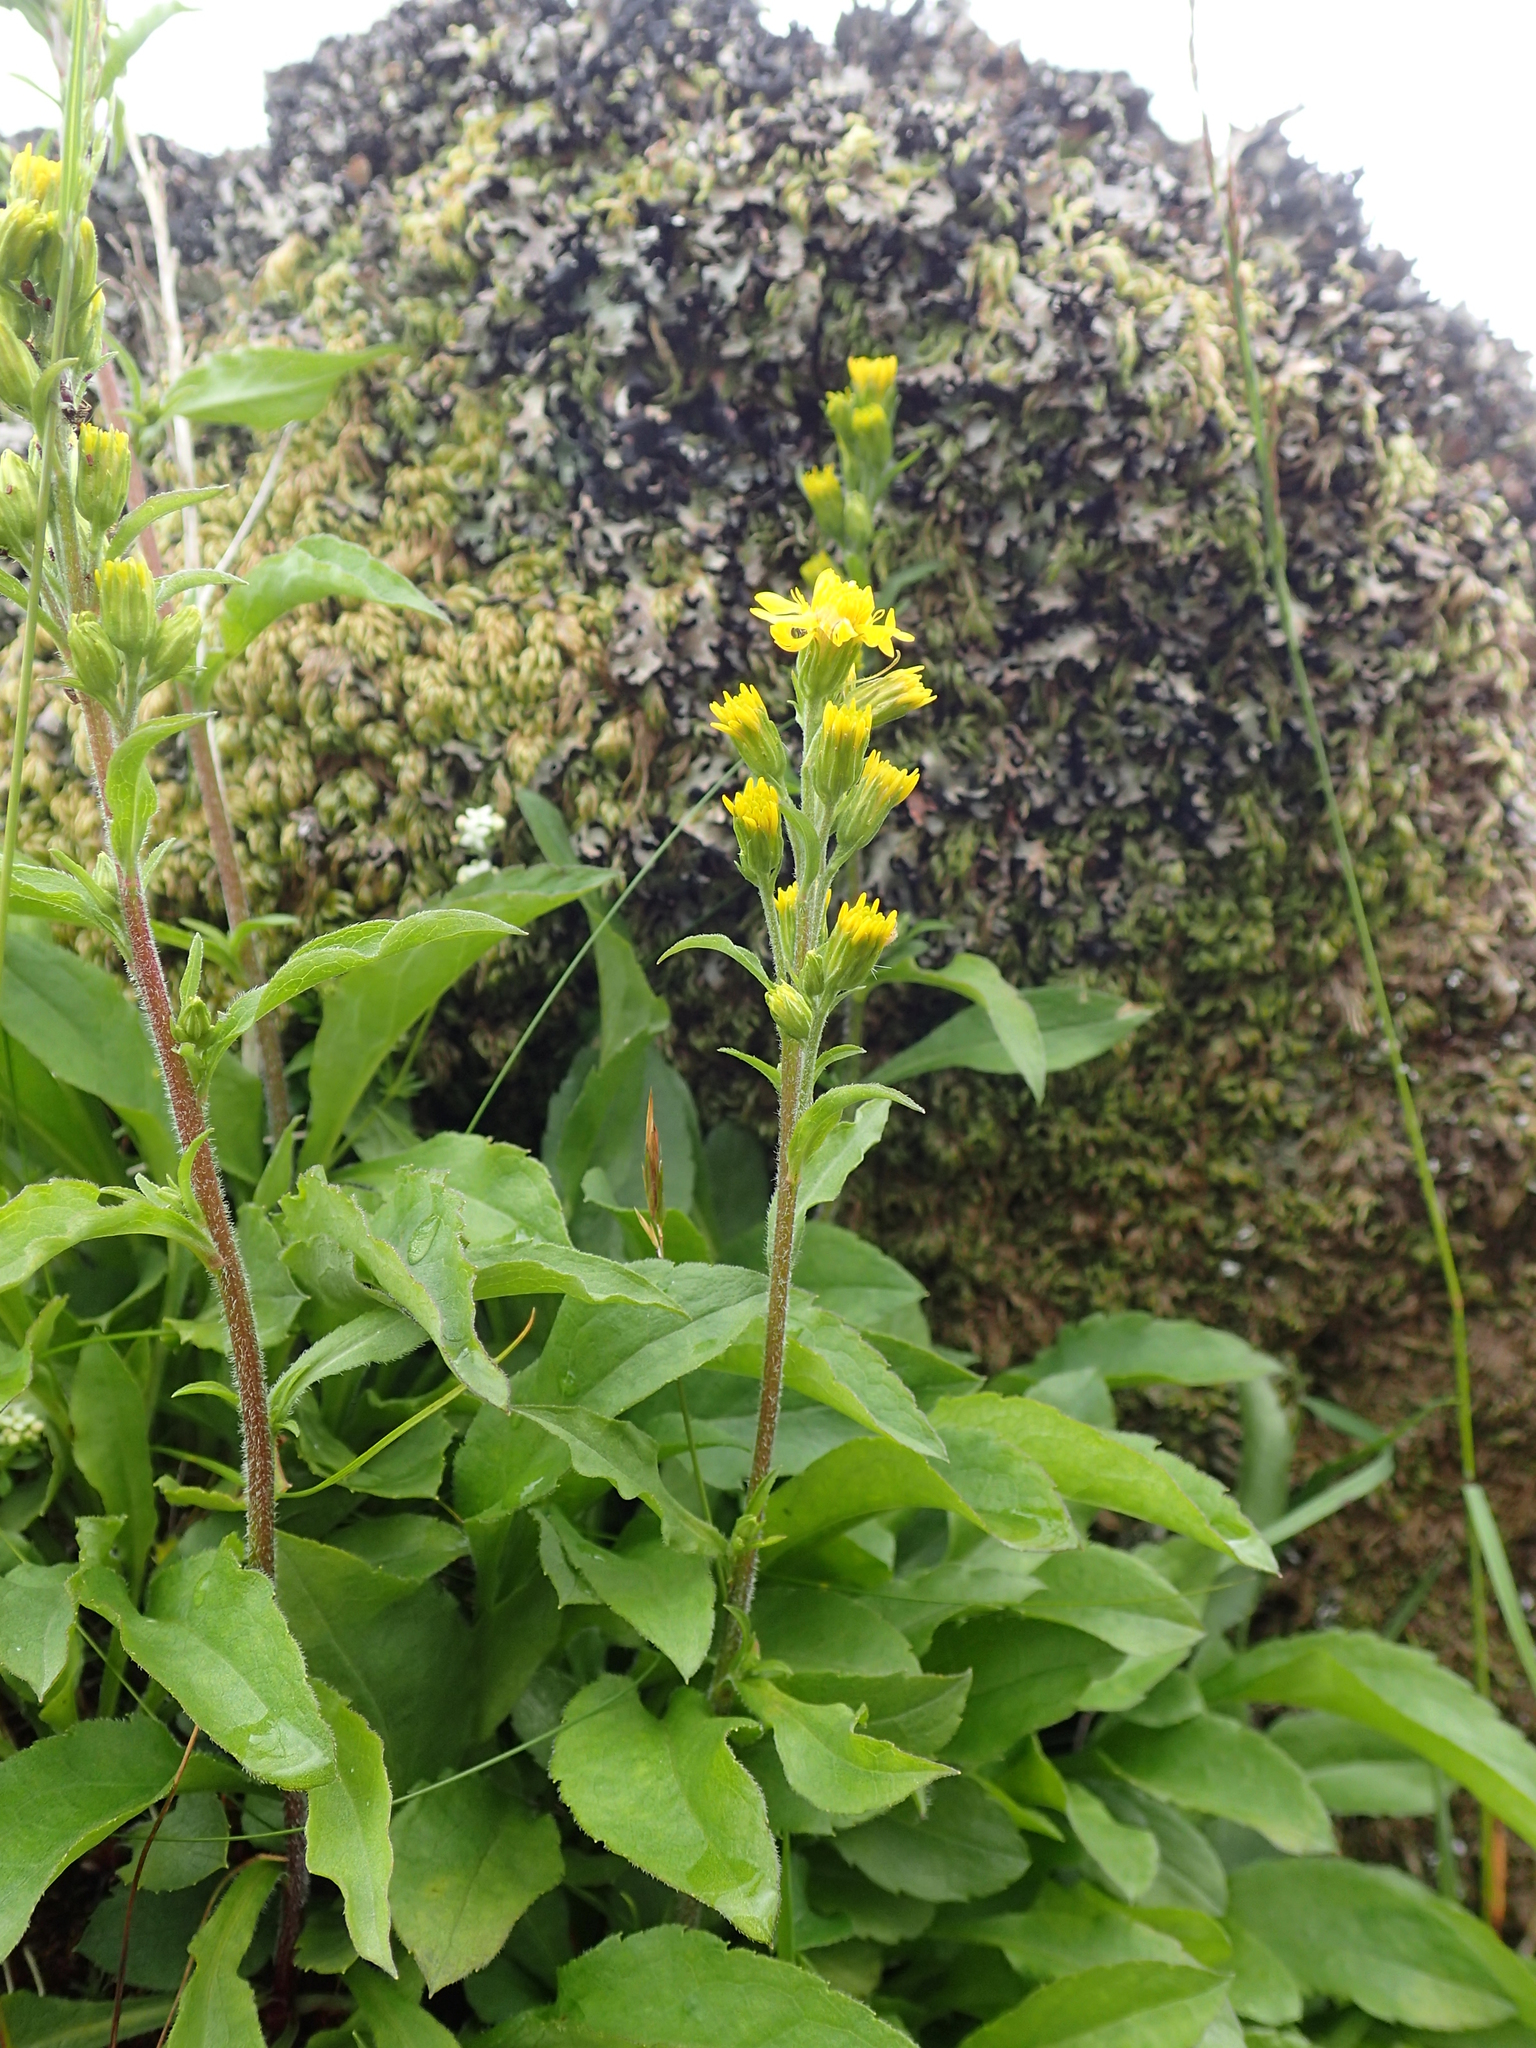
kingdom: Plantae
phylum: Tracheophyta
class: Magnoliopsida
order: Asterales
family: Asteraceae
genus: Solidago
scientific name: Solidago virgaurea
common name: Goldenrod
